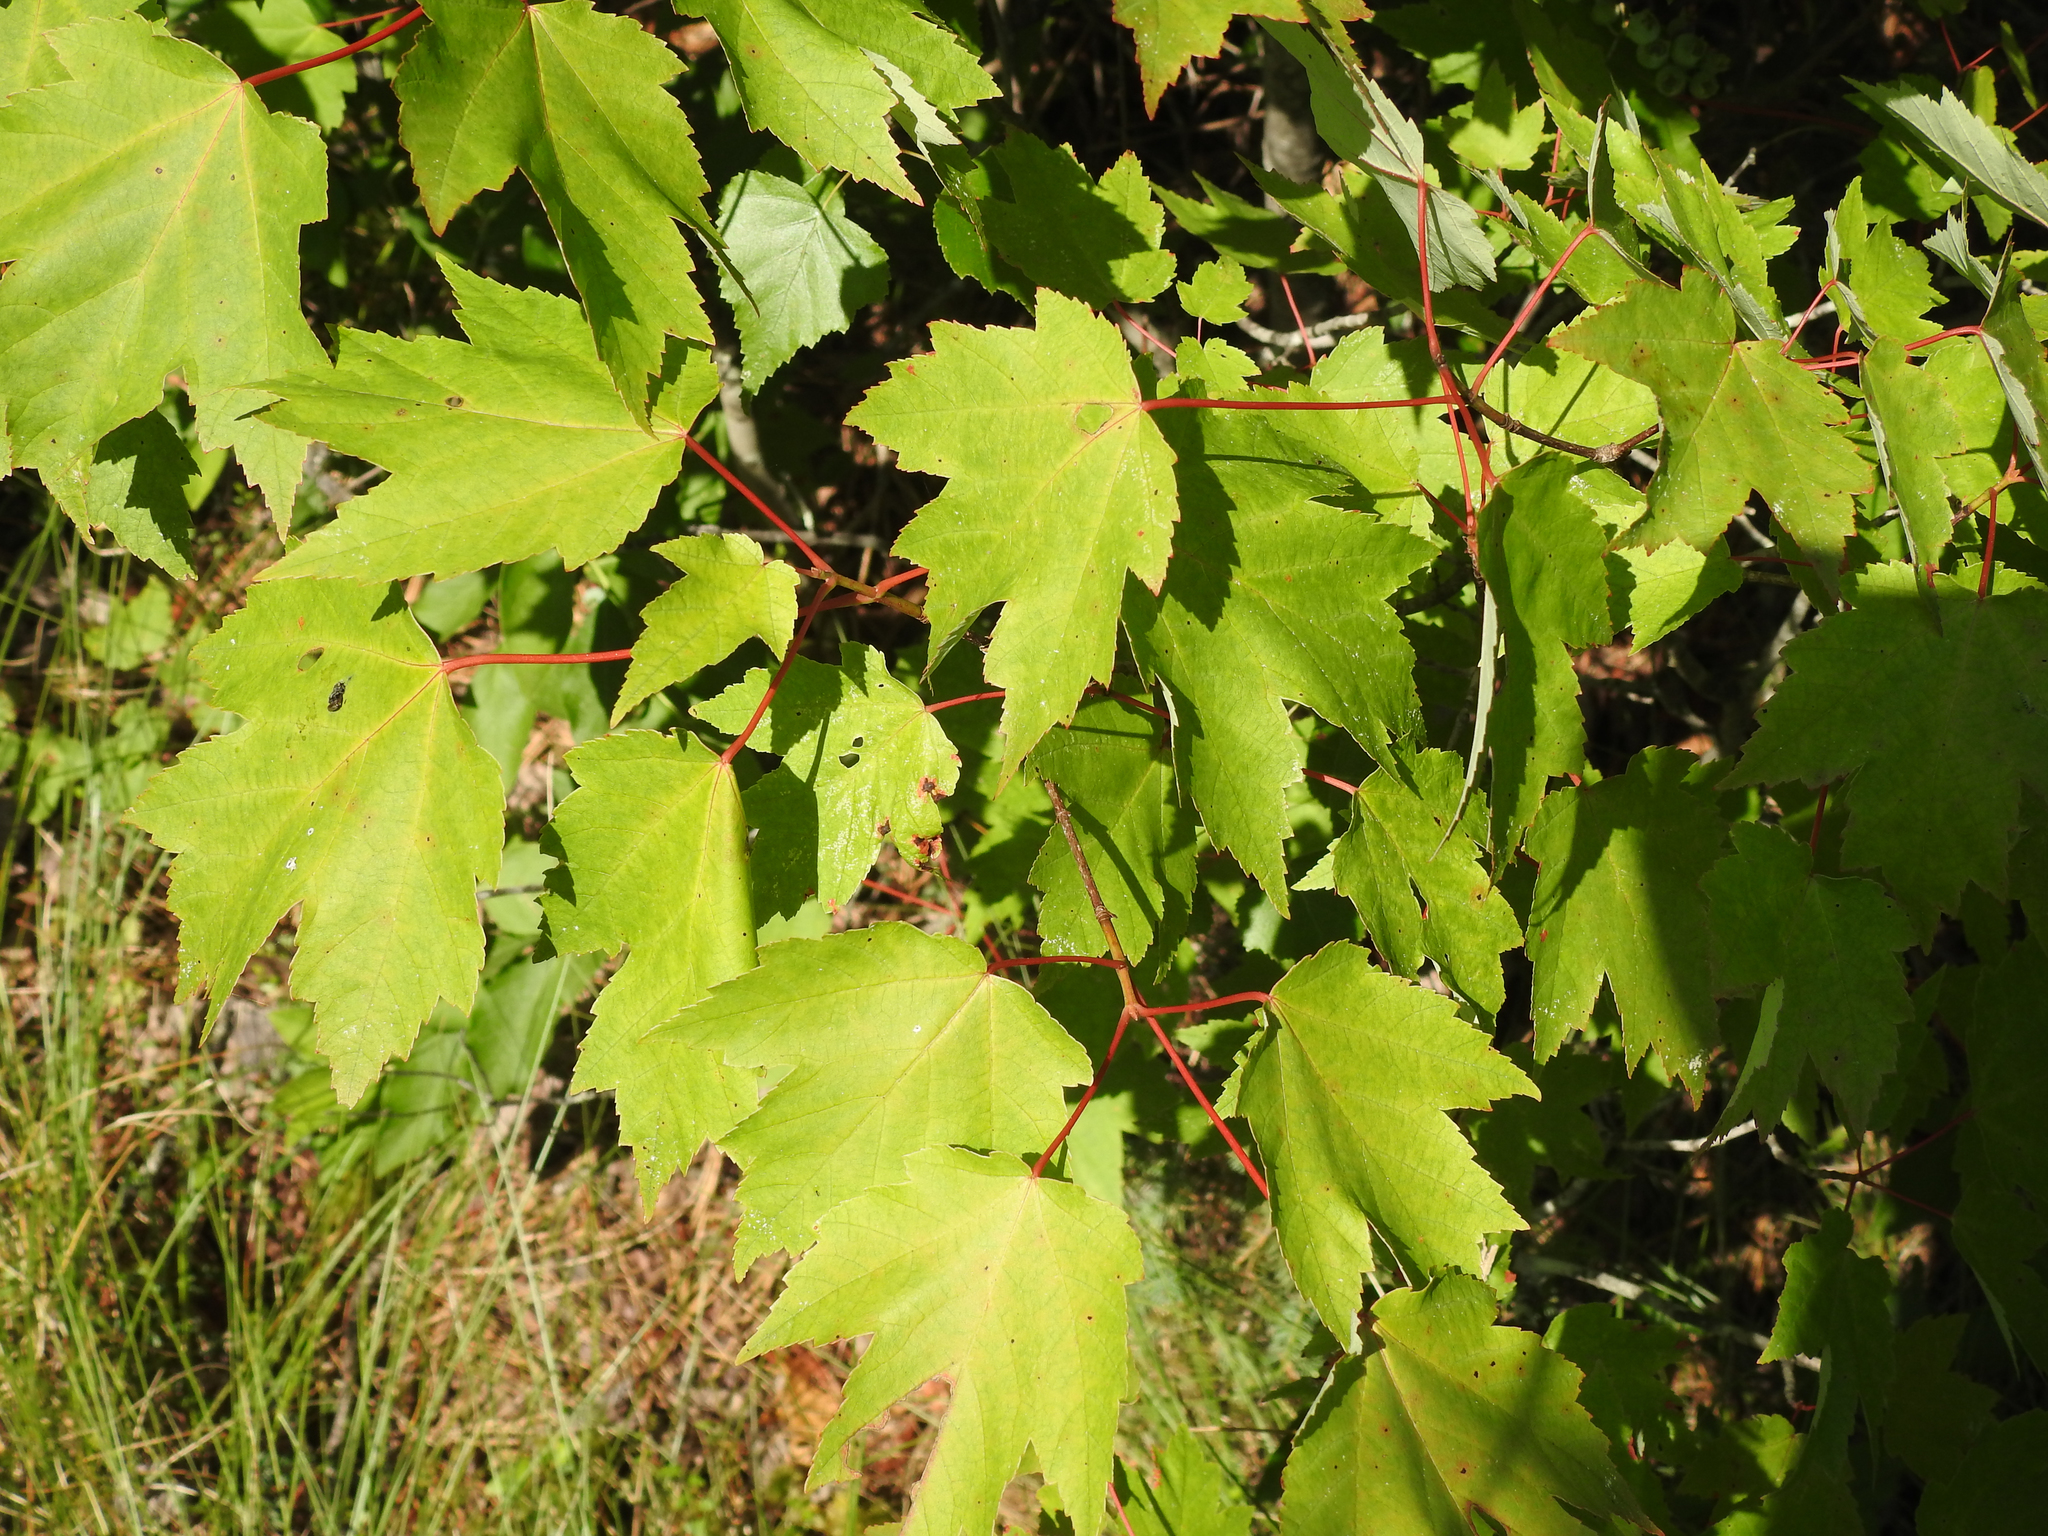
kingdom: Plantae
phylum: Tracheophyta
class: Magnoliopsida
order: Sapindales
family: Sapindaceae
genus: Acer
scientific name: Acer rubrum
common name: Red maple
